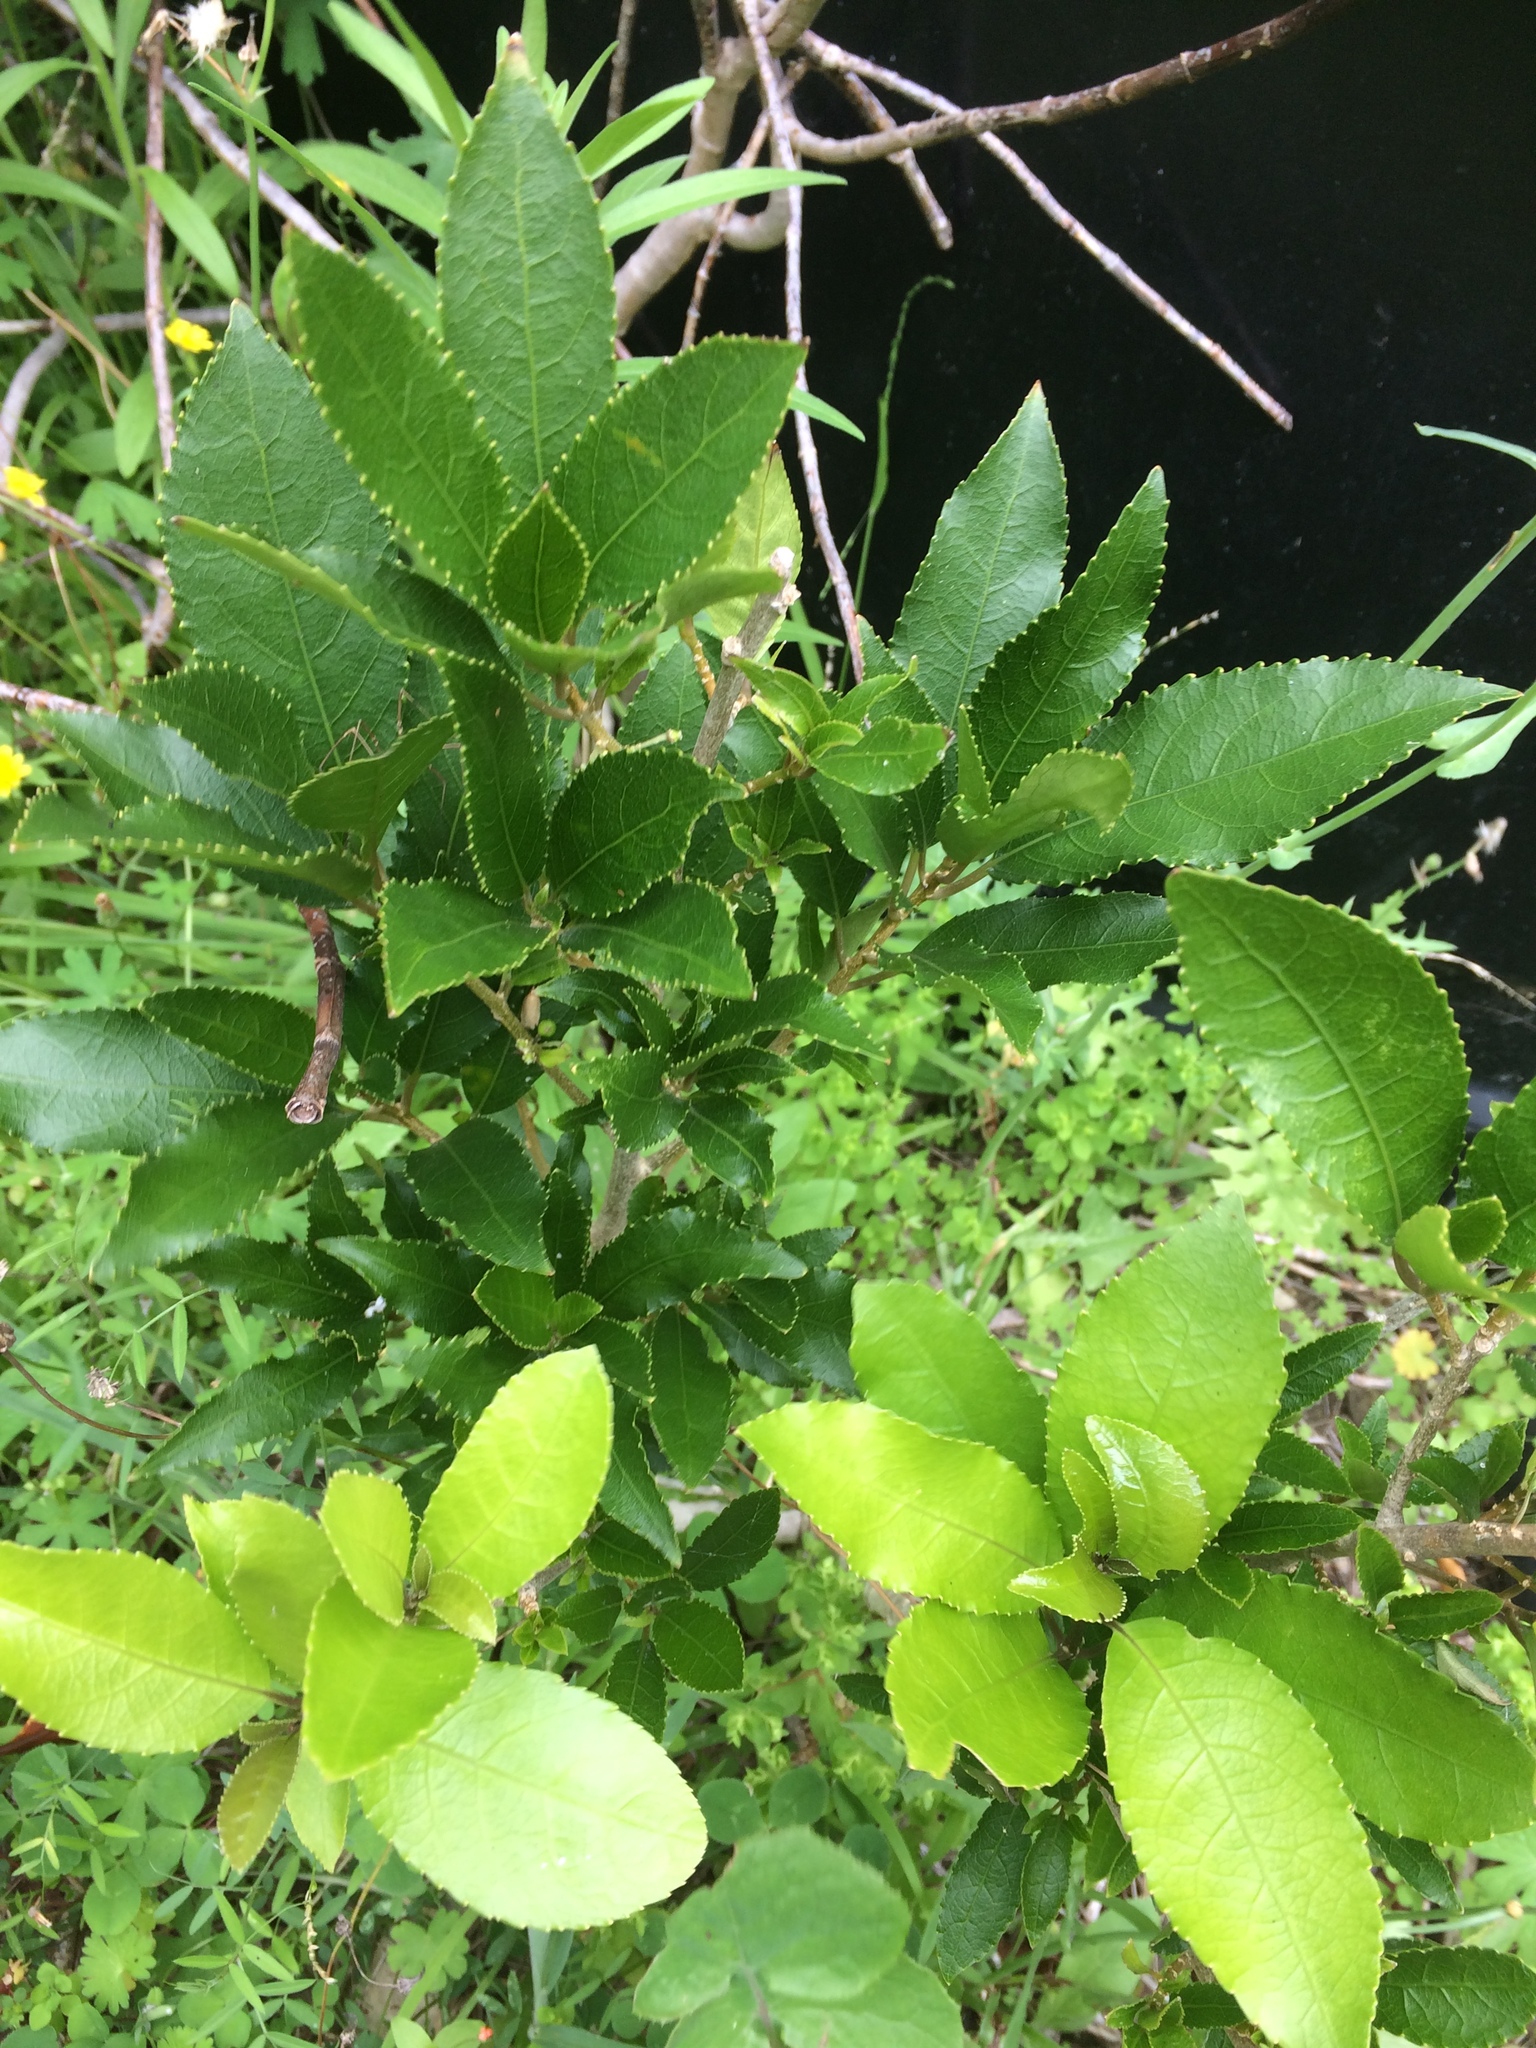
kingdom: Plantae
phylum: Tracheophyta
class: Magnoliopsida
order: Malpighiales
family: Violaceae
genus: Melicytus
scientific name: Melicytus ramiflorus
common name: Mahoe
